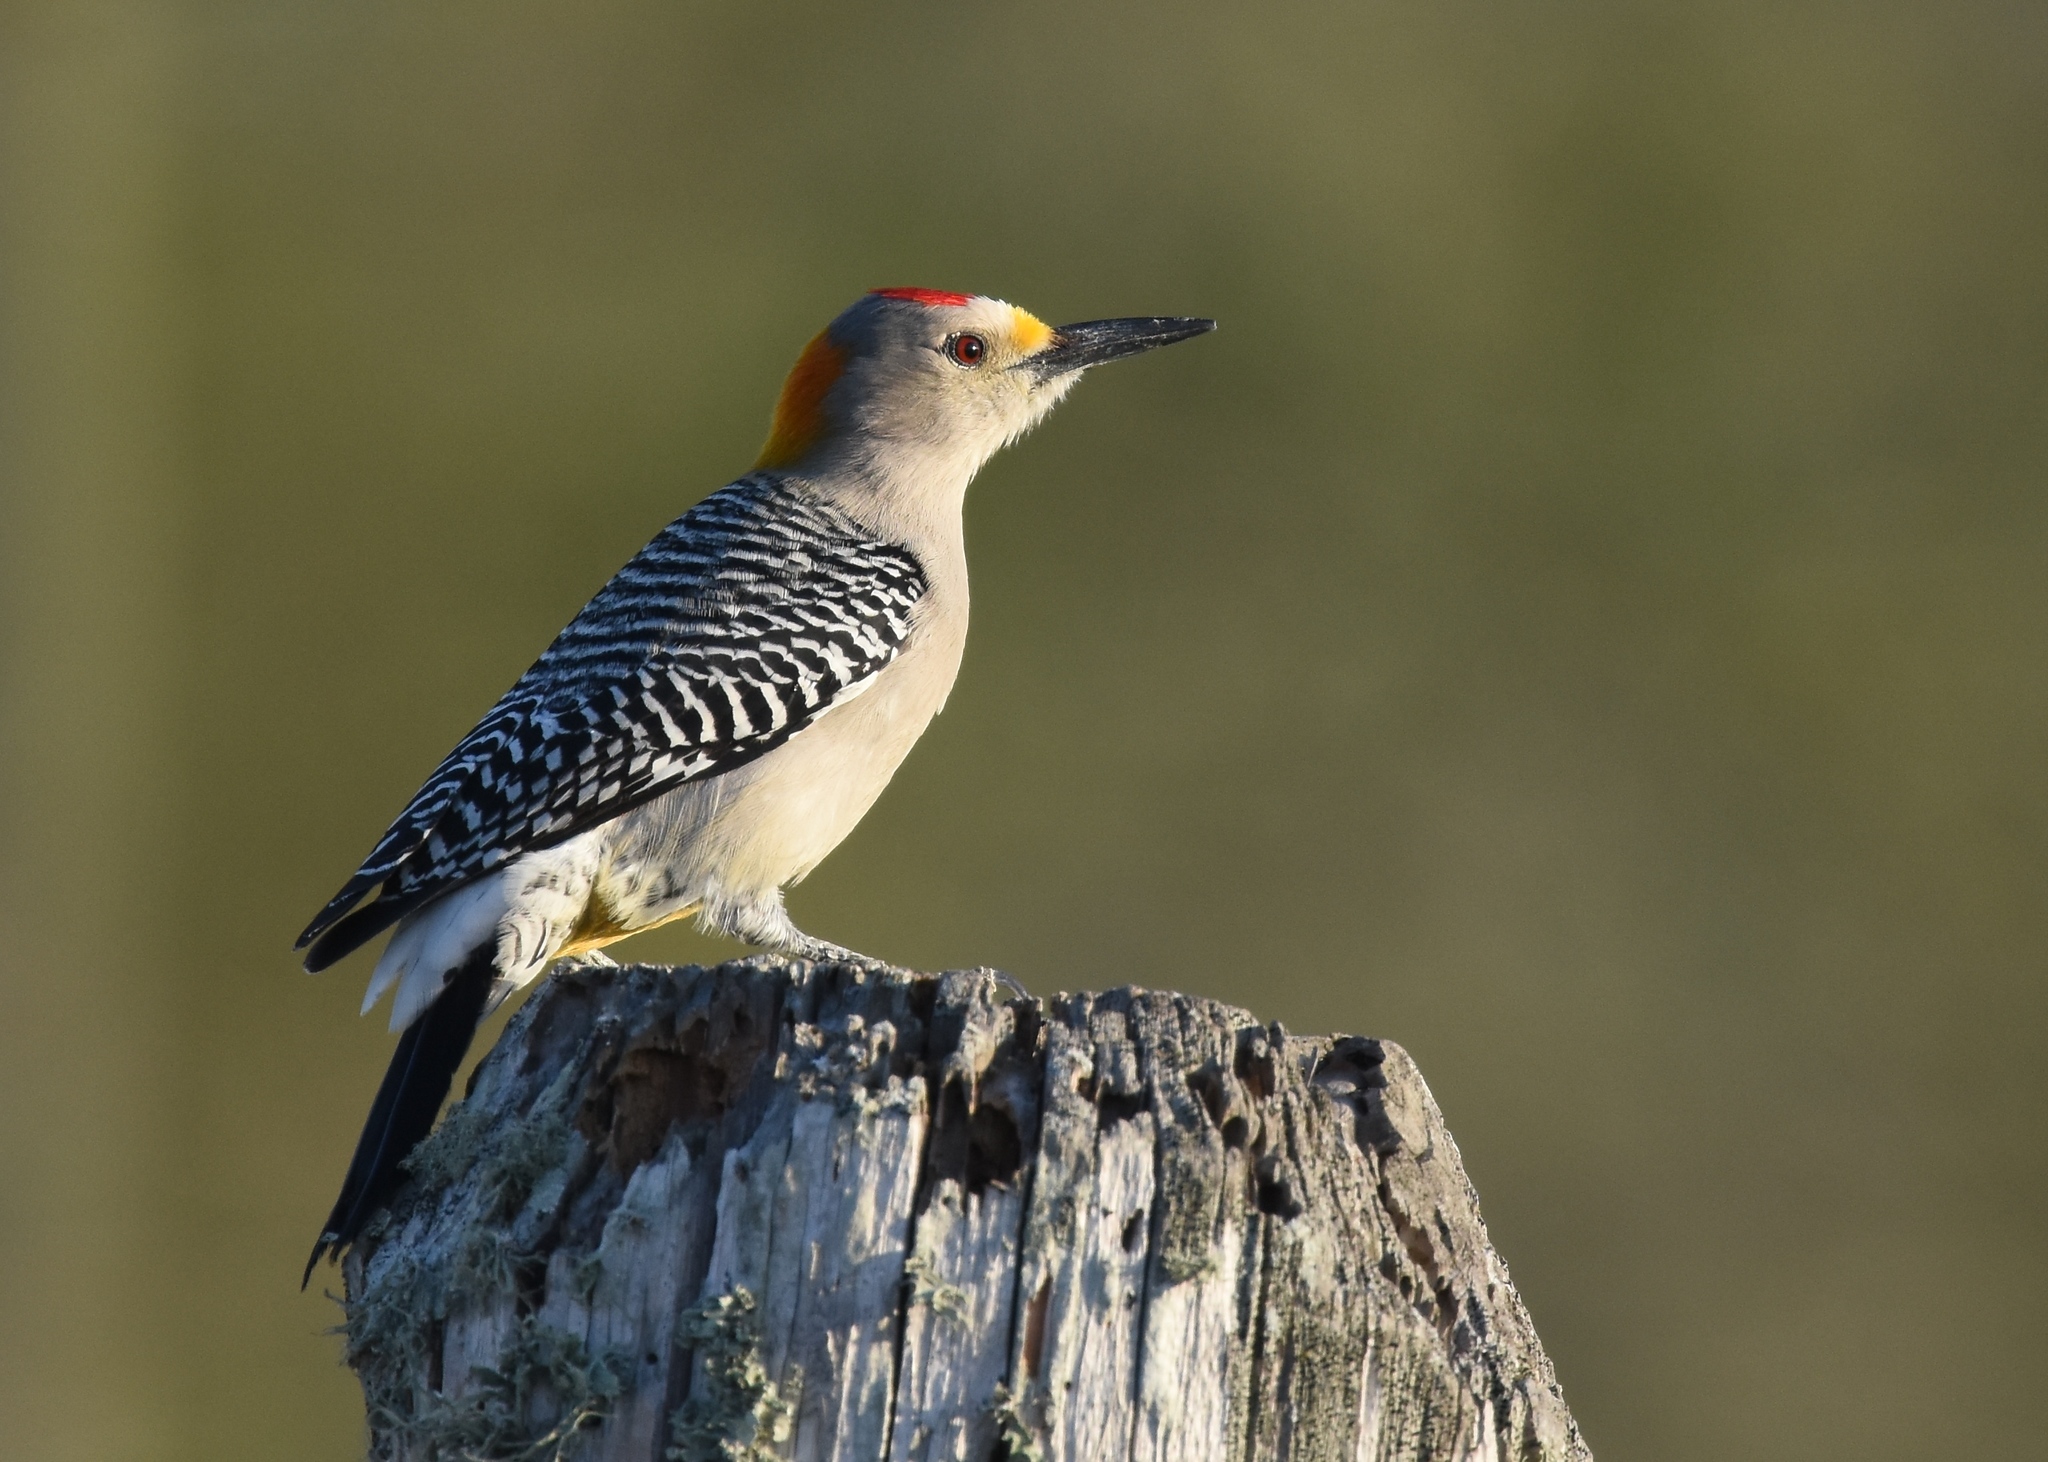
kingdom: Animalia
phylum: Chordata
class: Aves
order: Piciformes
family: Picidae
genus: Melanerpes
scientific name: Melanerpes aurifrons
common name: Golden-fronted woodpecker
